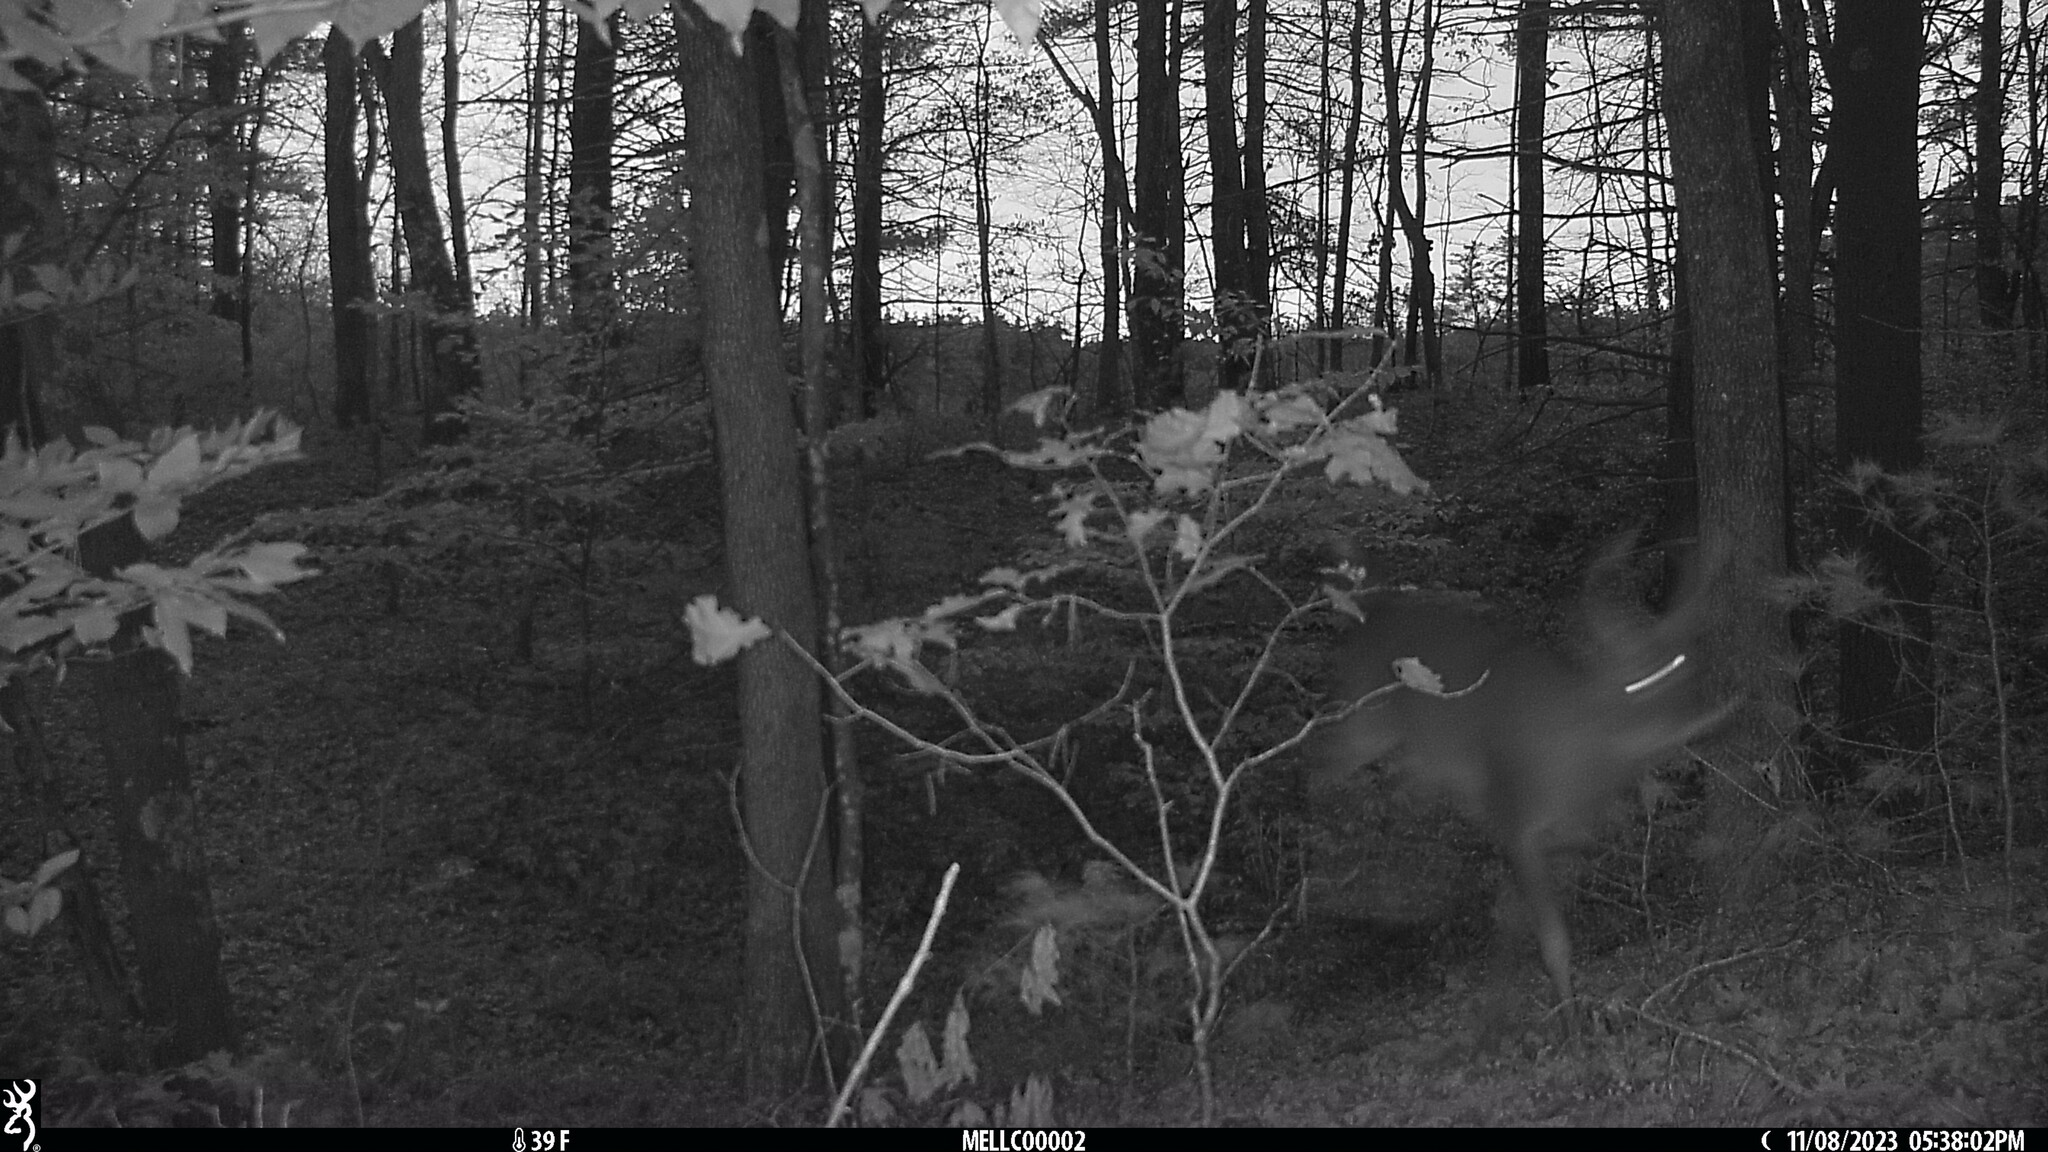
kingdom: Animalia
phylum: Chordata
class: Mammalia
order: Artiodactyla
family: Cervidae
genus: Odocoileus
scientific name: Odocoileus virginianus
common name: White-tailed deer
